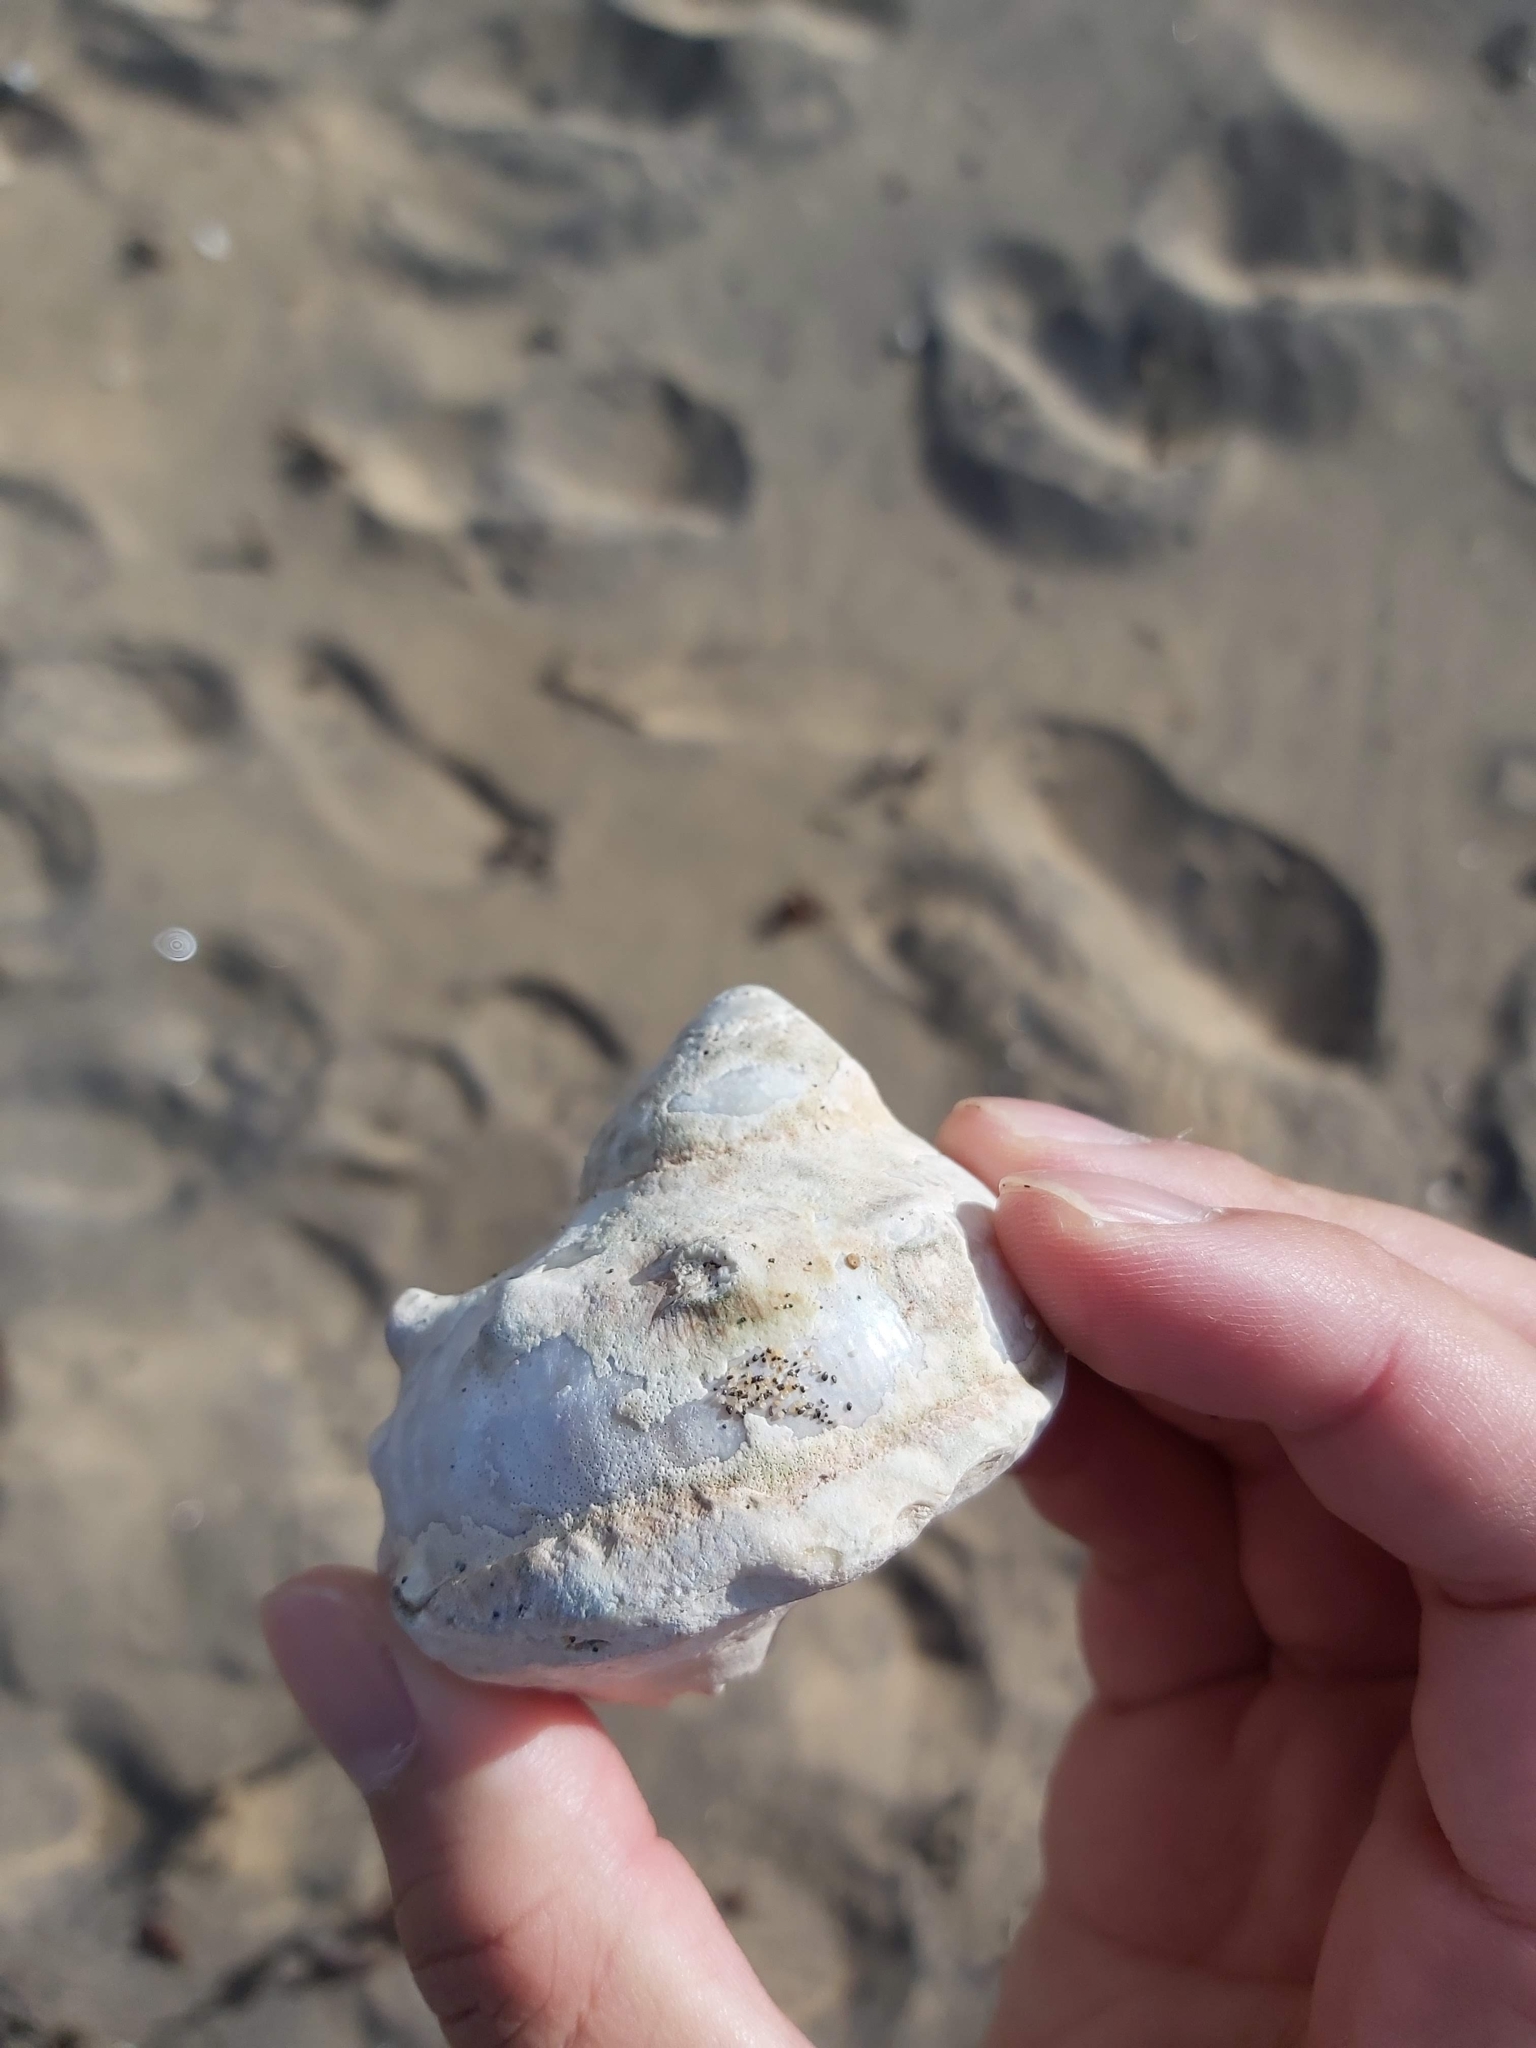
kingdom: Animalia
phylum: Mollusca
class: Gastropoda
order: Trochida
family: Turbinidae
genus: Turbo
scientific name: Turbo militaris
